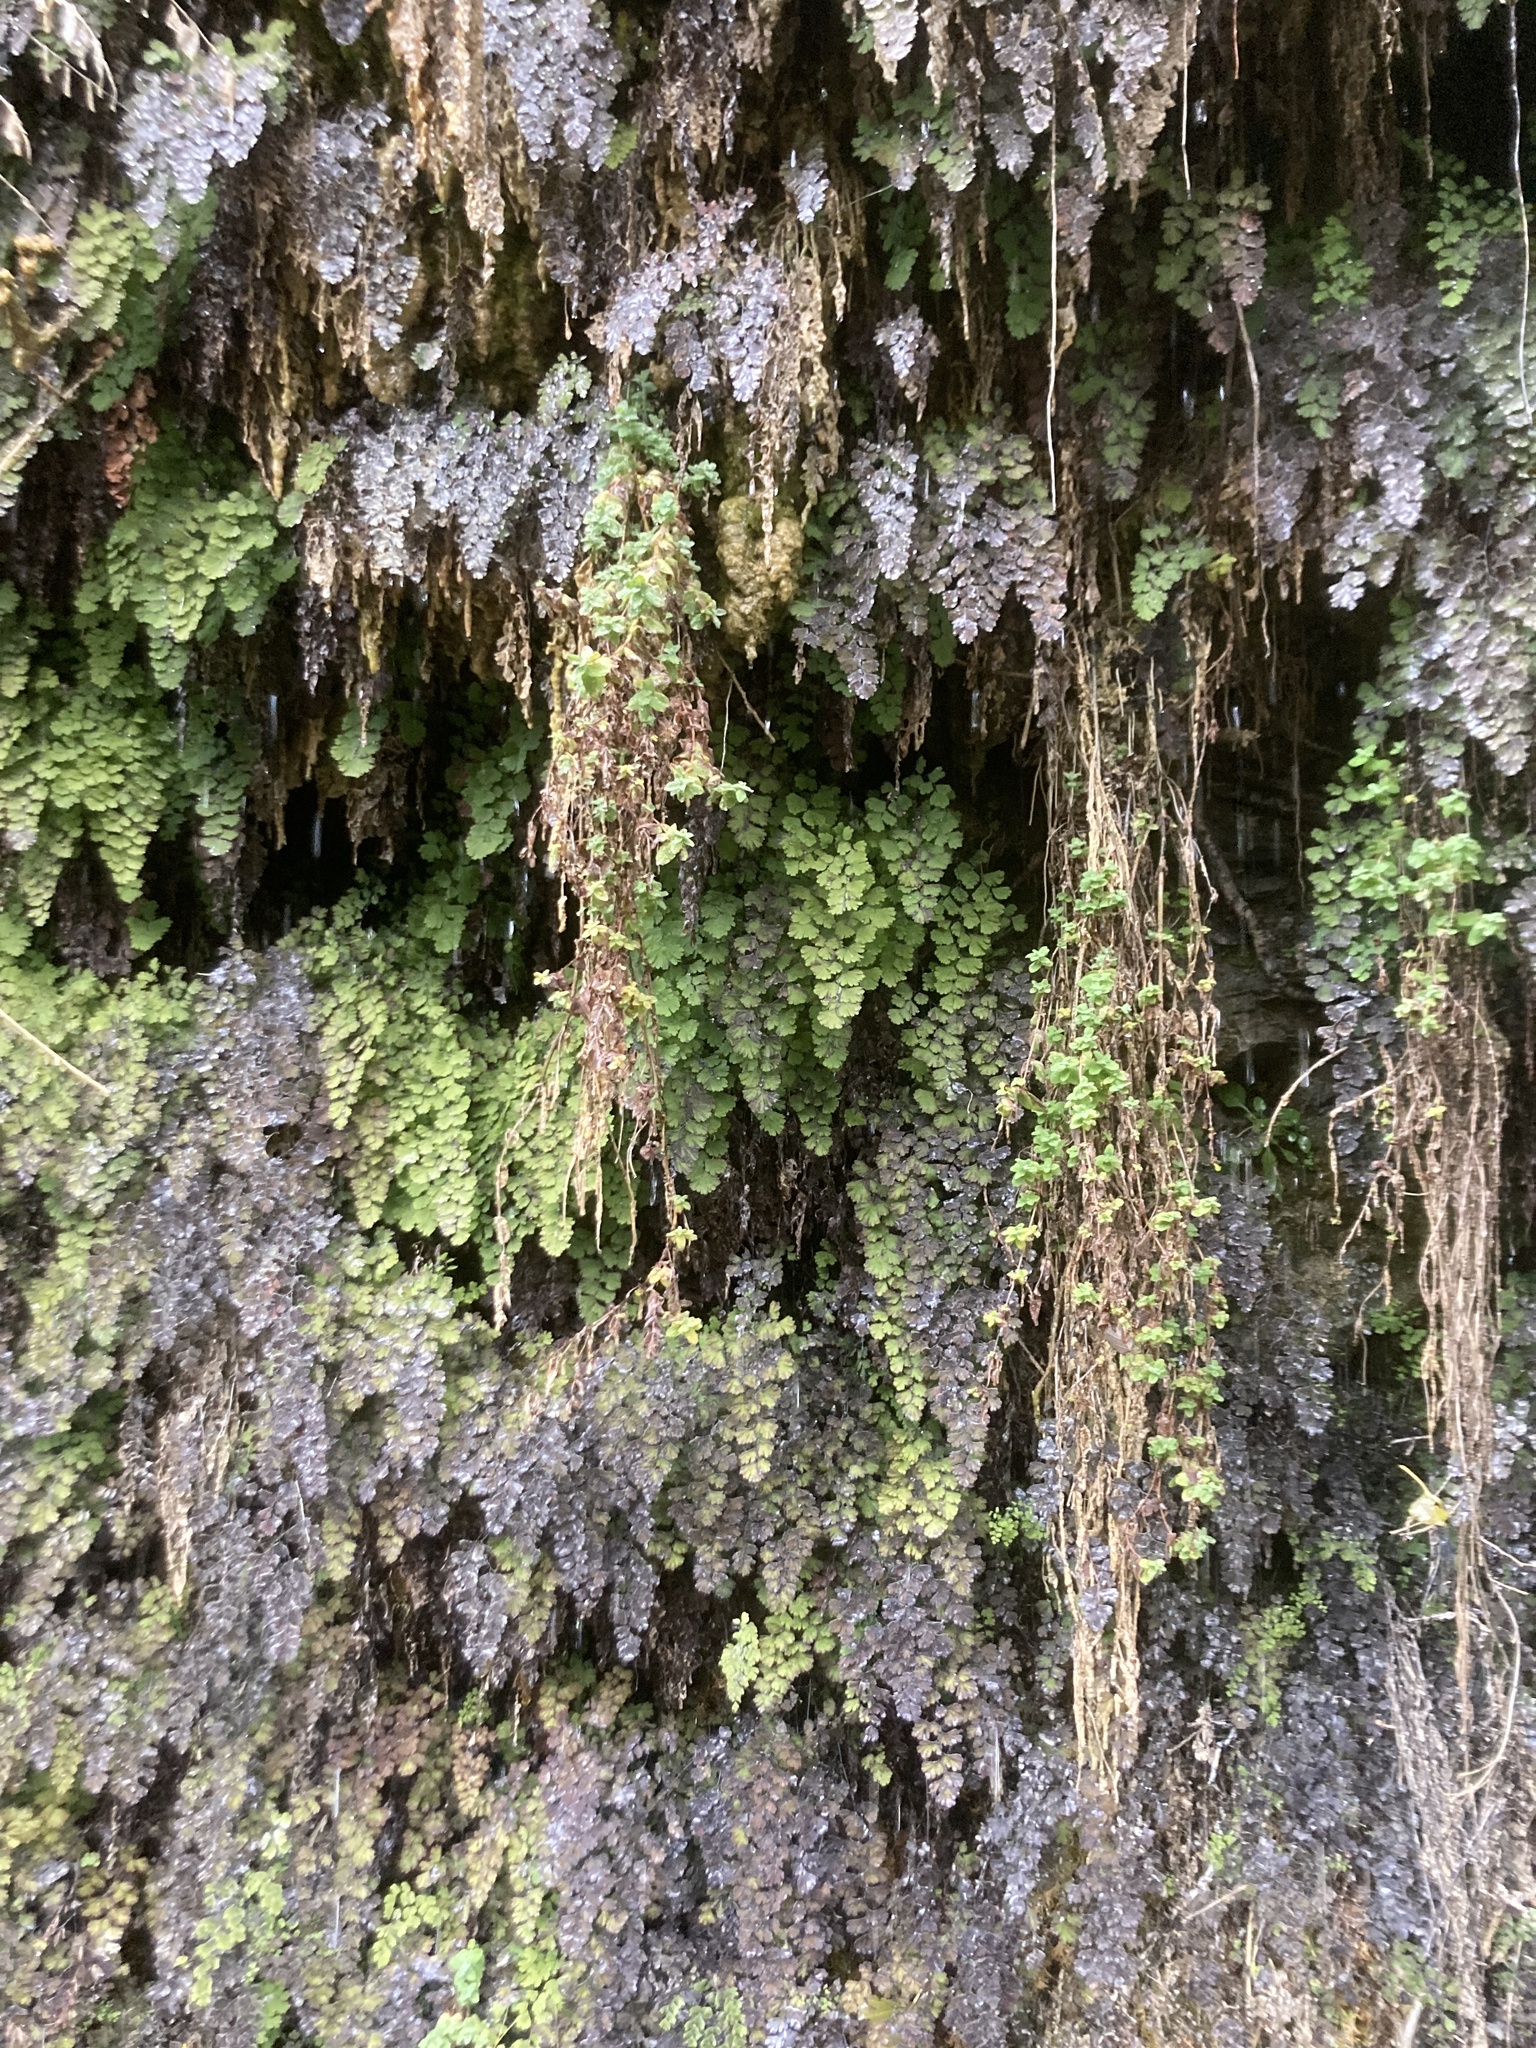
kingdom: Plantae
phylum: Tracheophyta
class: Polypodiopsida
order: Polypodiales
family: Pteridaceae
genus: Adiantum
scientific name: Adiantum capillus-veneris
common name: Maidenhair fern
